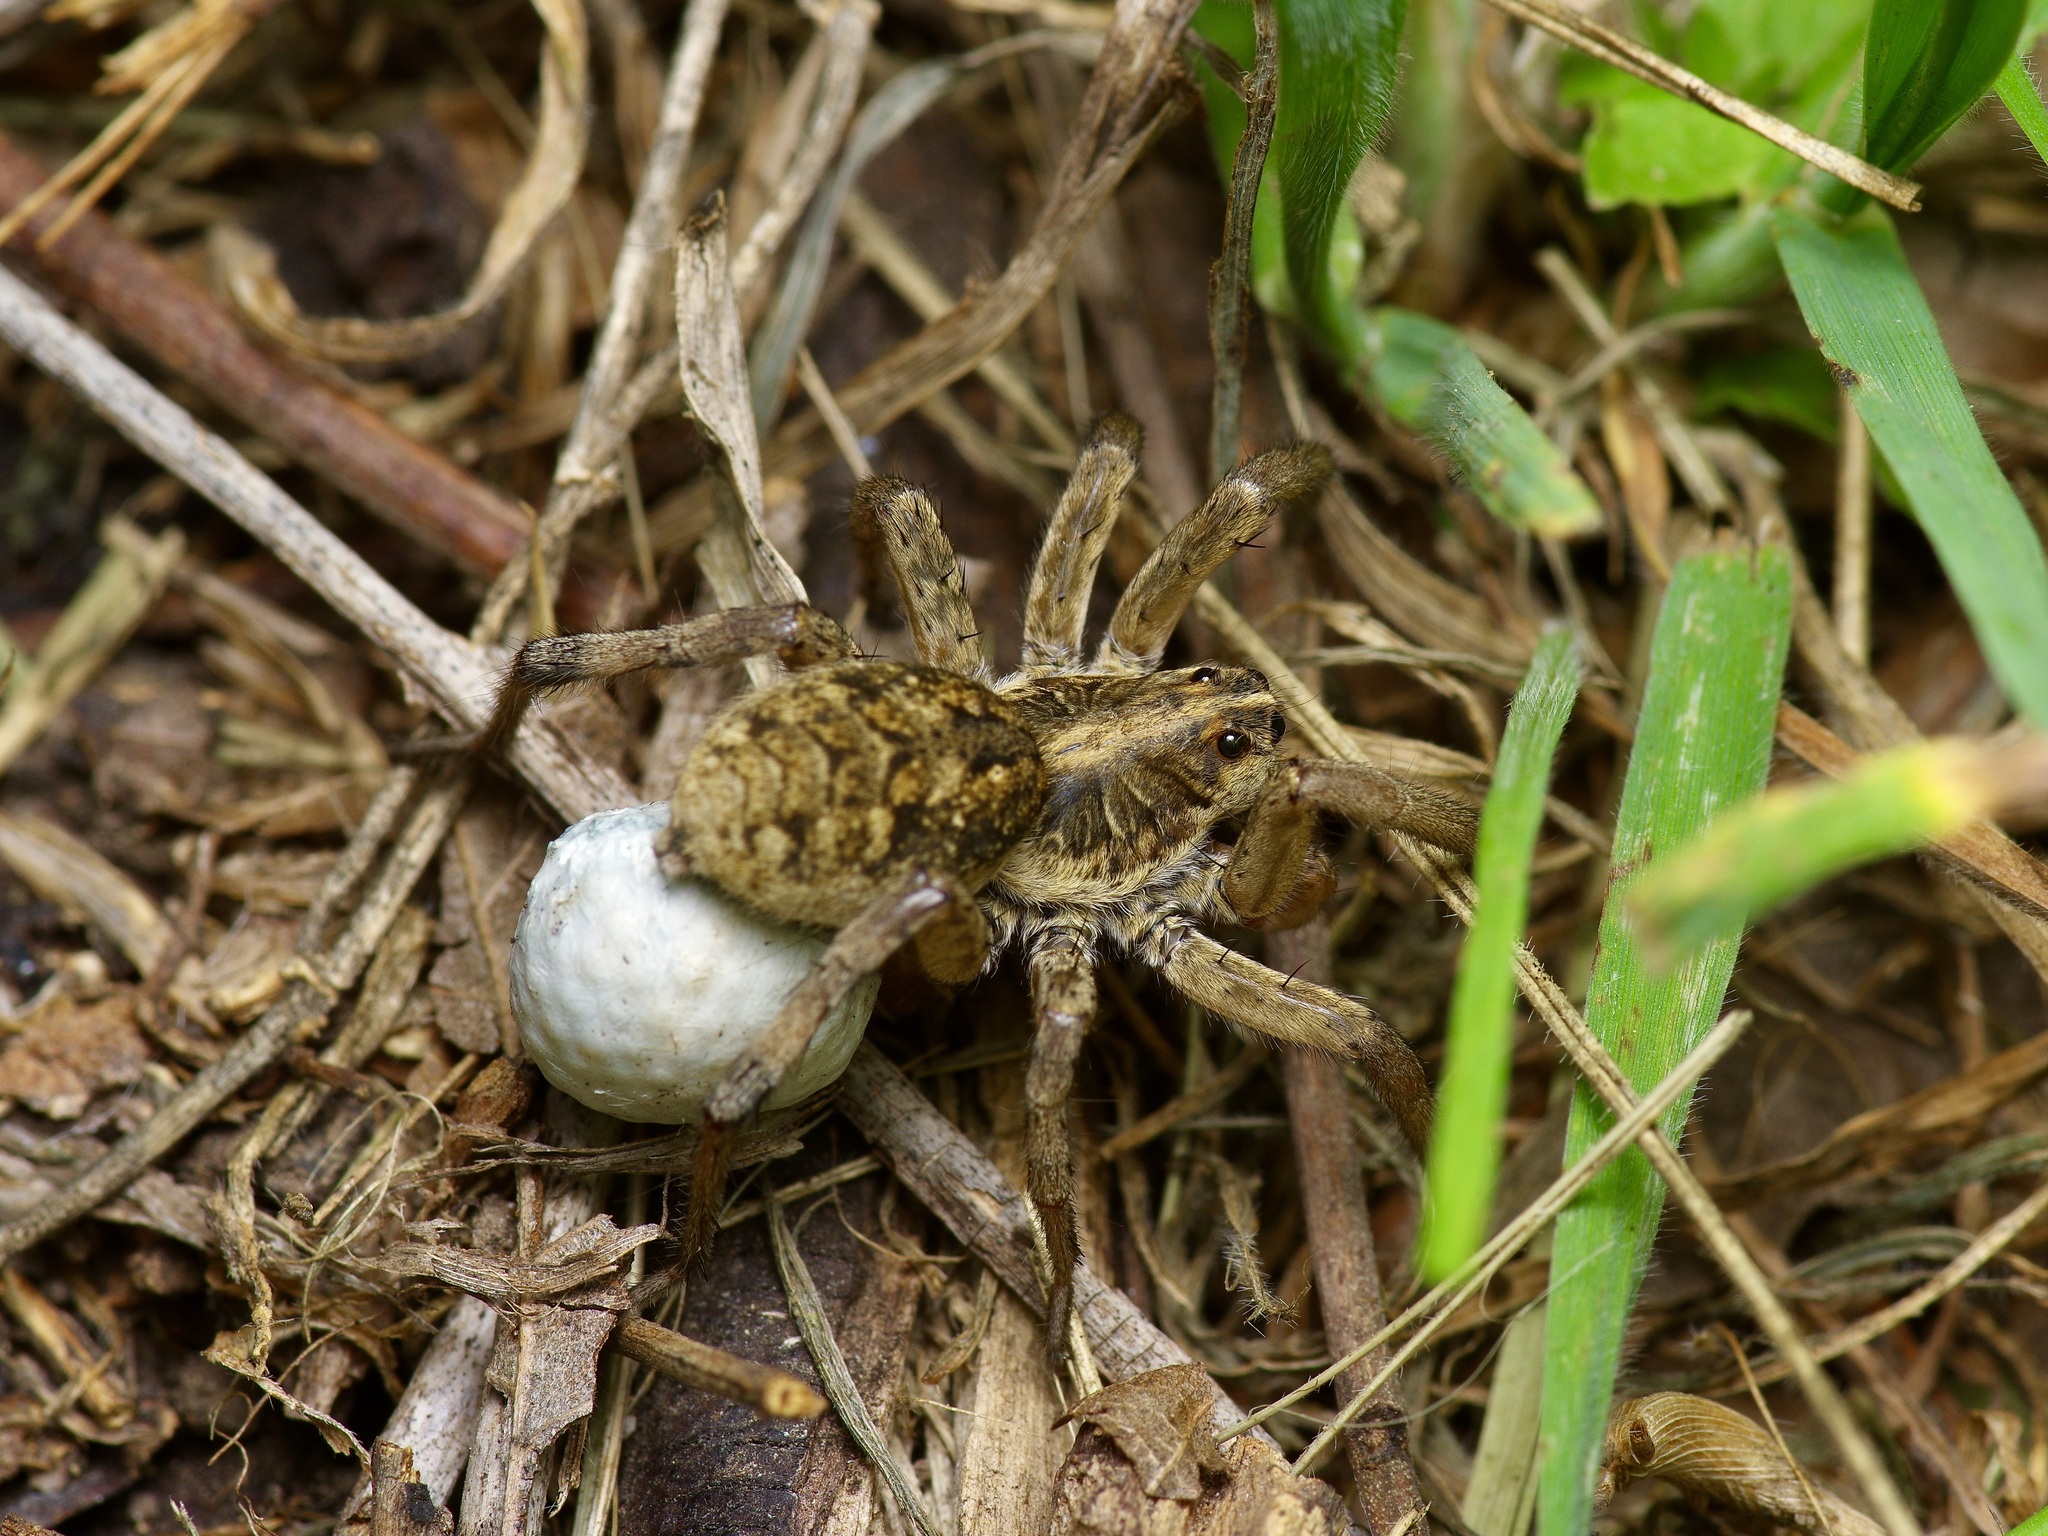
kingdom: Animalia
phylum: Arthropoda
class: Arachnida
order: Araneae
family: Lycosidae
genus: Hogna
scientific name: Hogna antelucana
